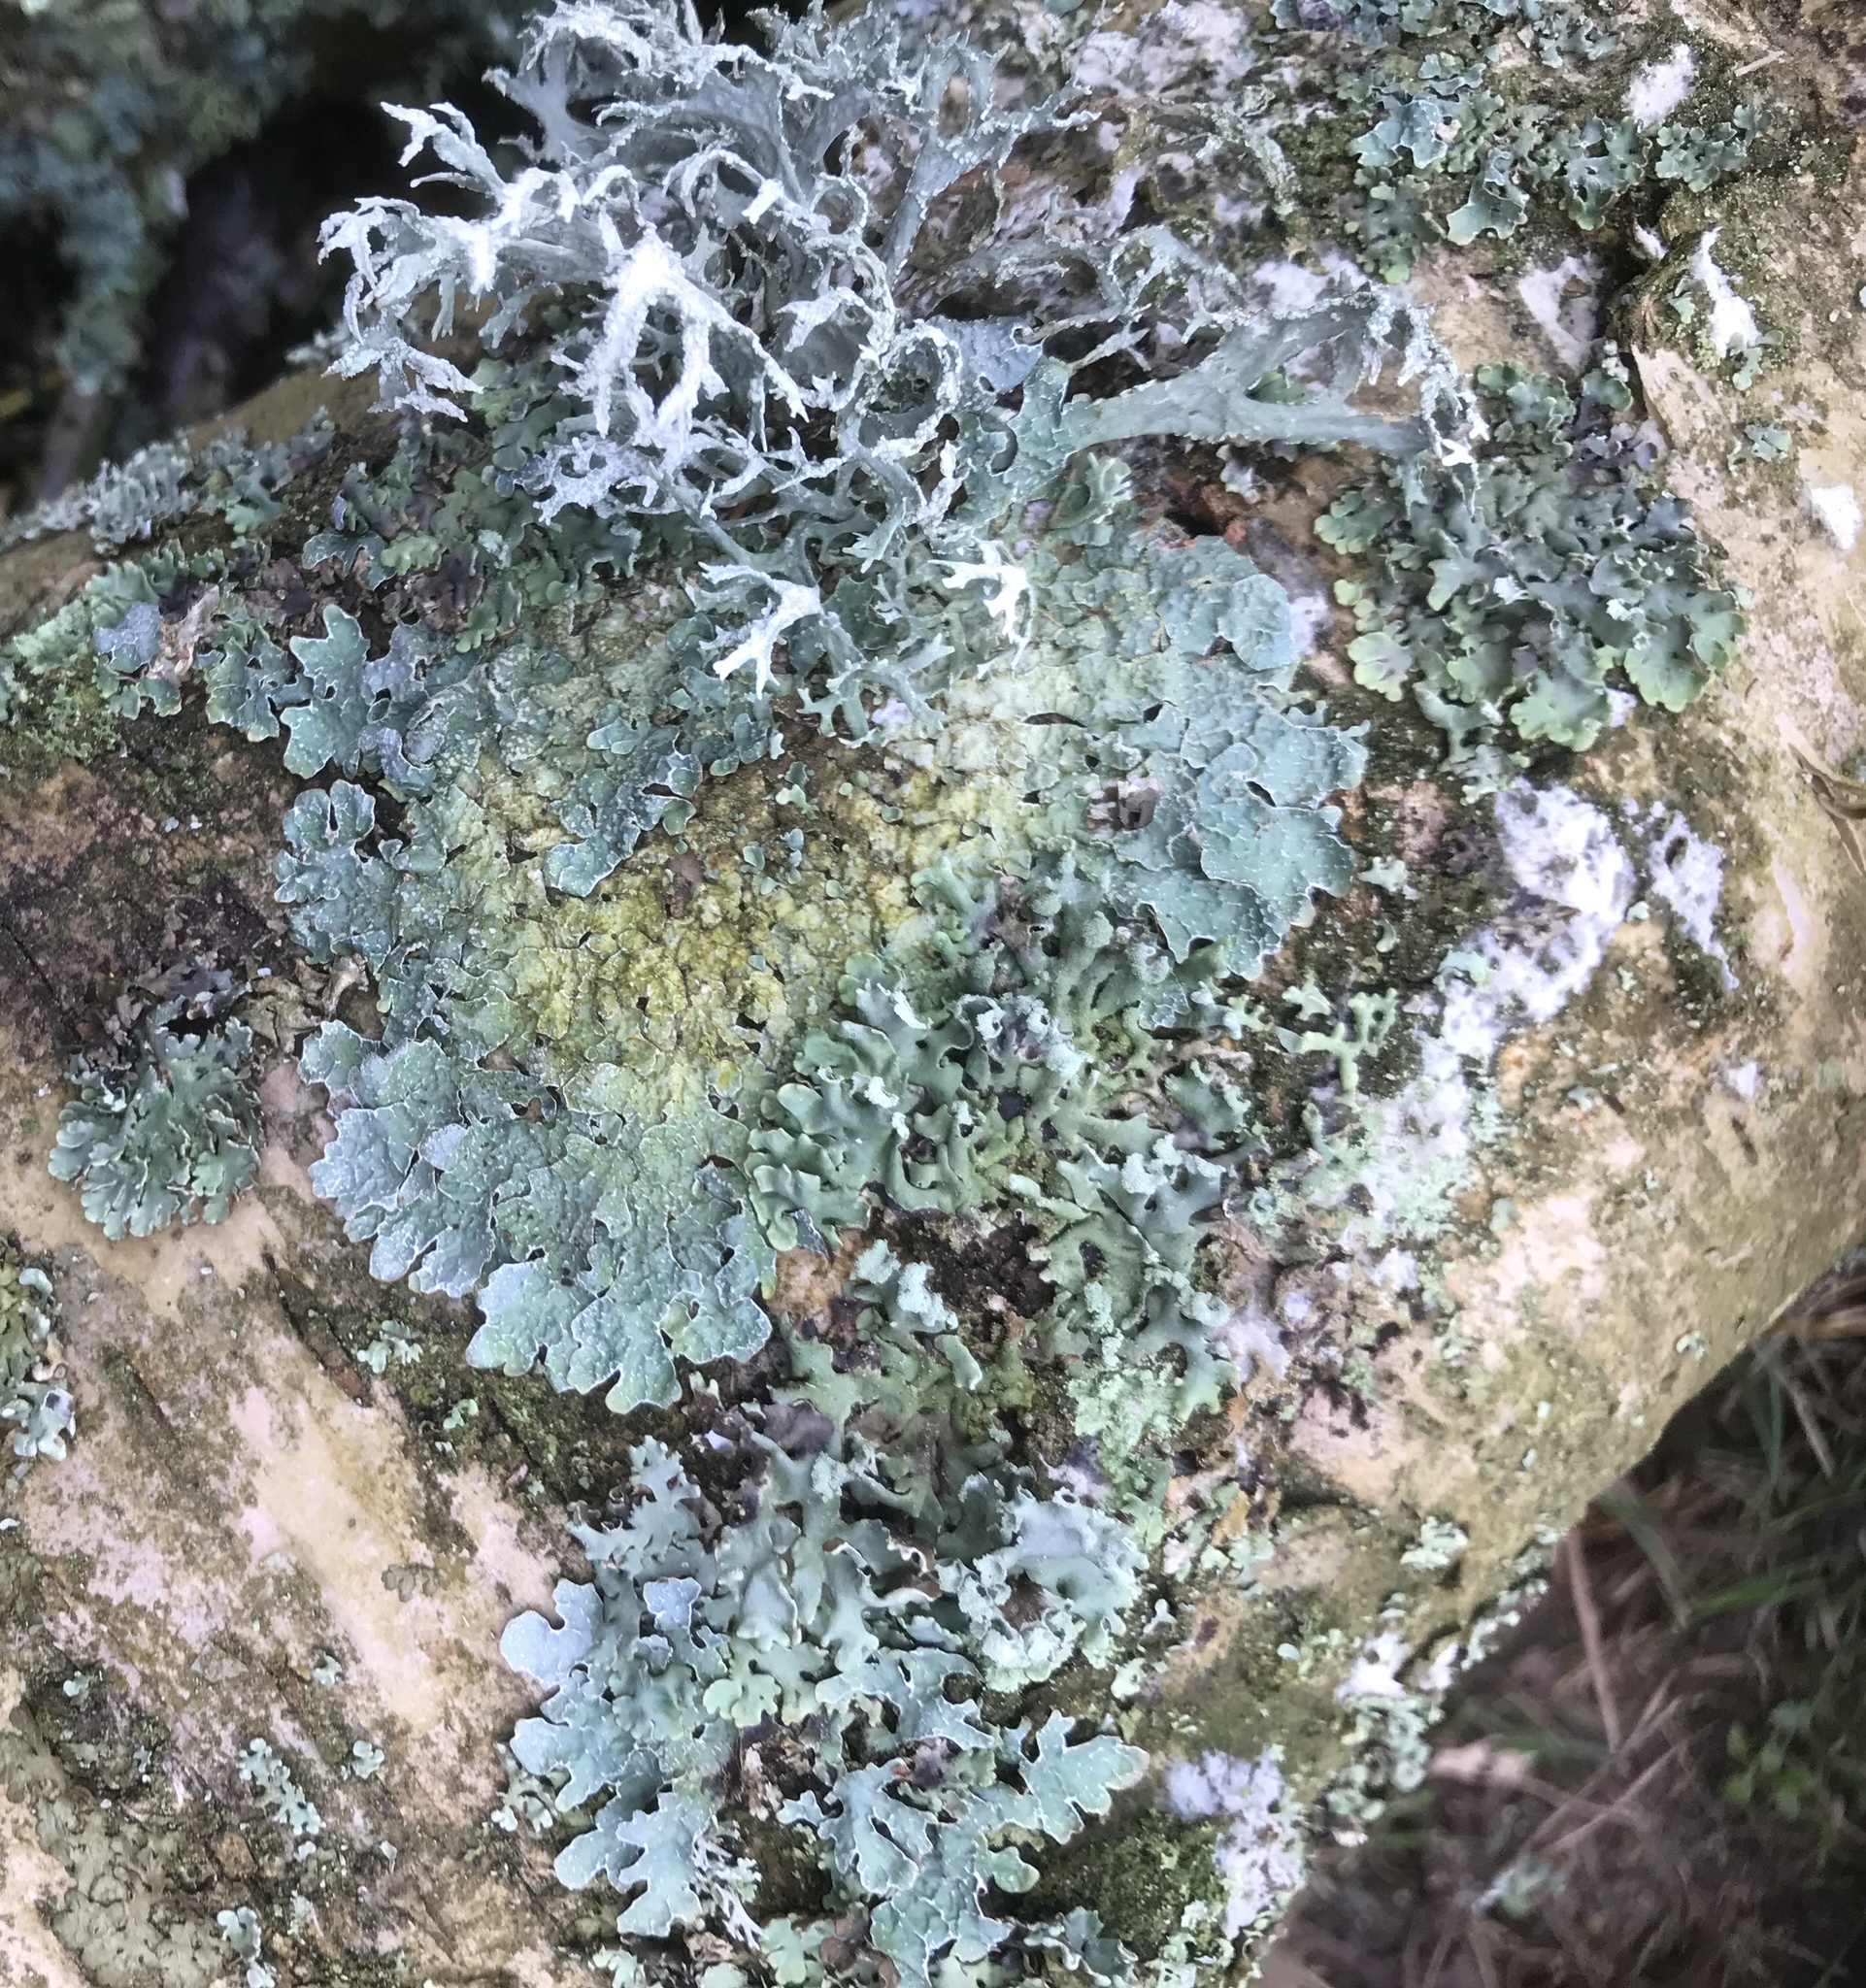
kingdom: Fungi
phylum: Ascomycota
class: Lecanoromycetes
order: Lecanorales
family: Parmeliaceae
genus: Parmelia
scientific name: Parmelia sulcata
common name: Netted shield lichen
